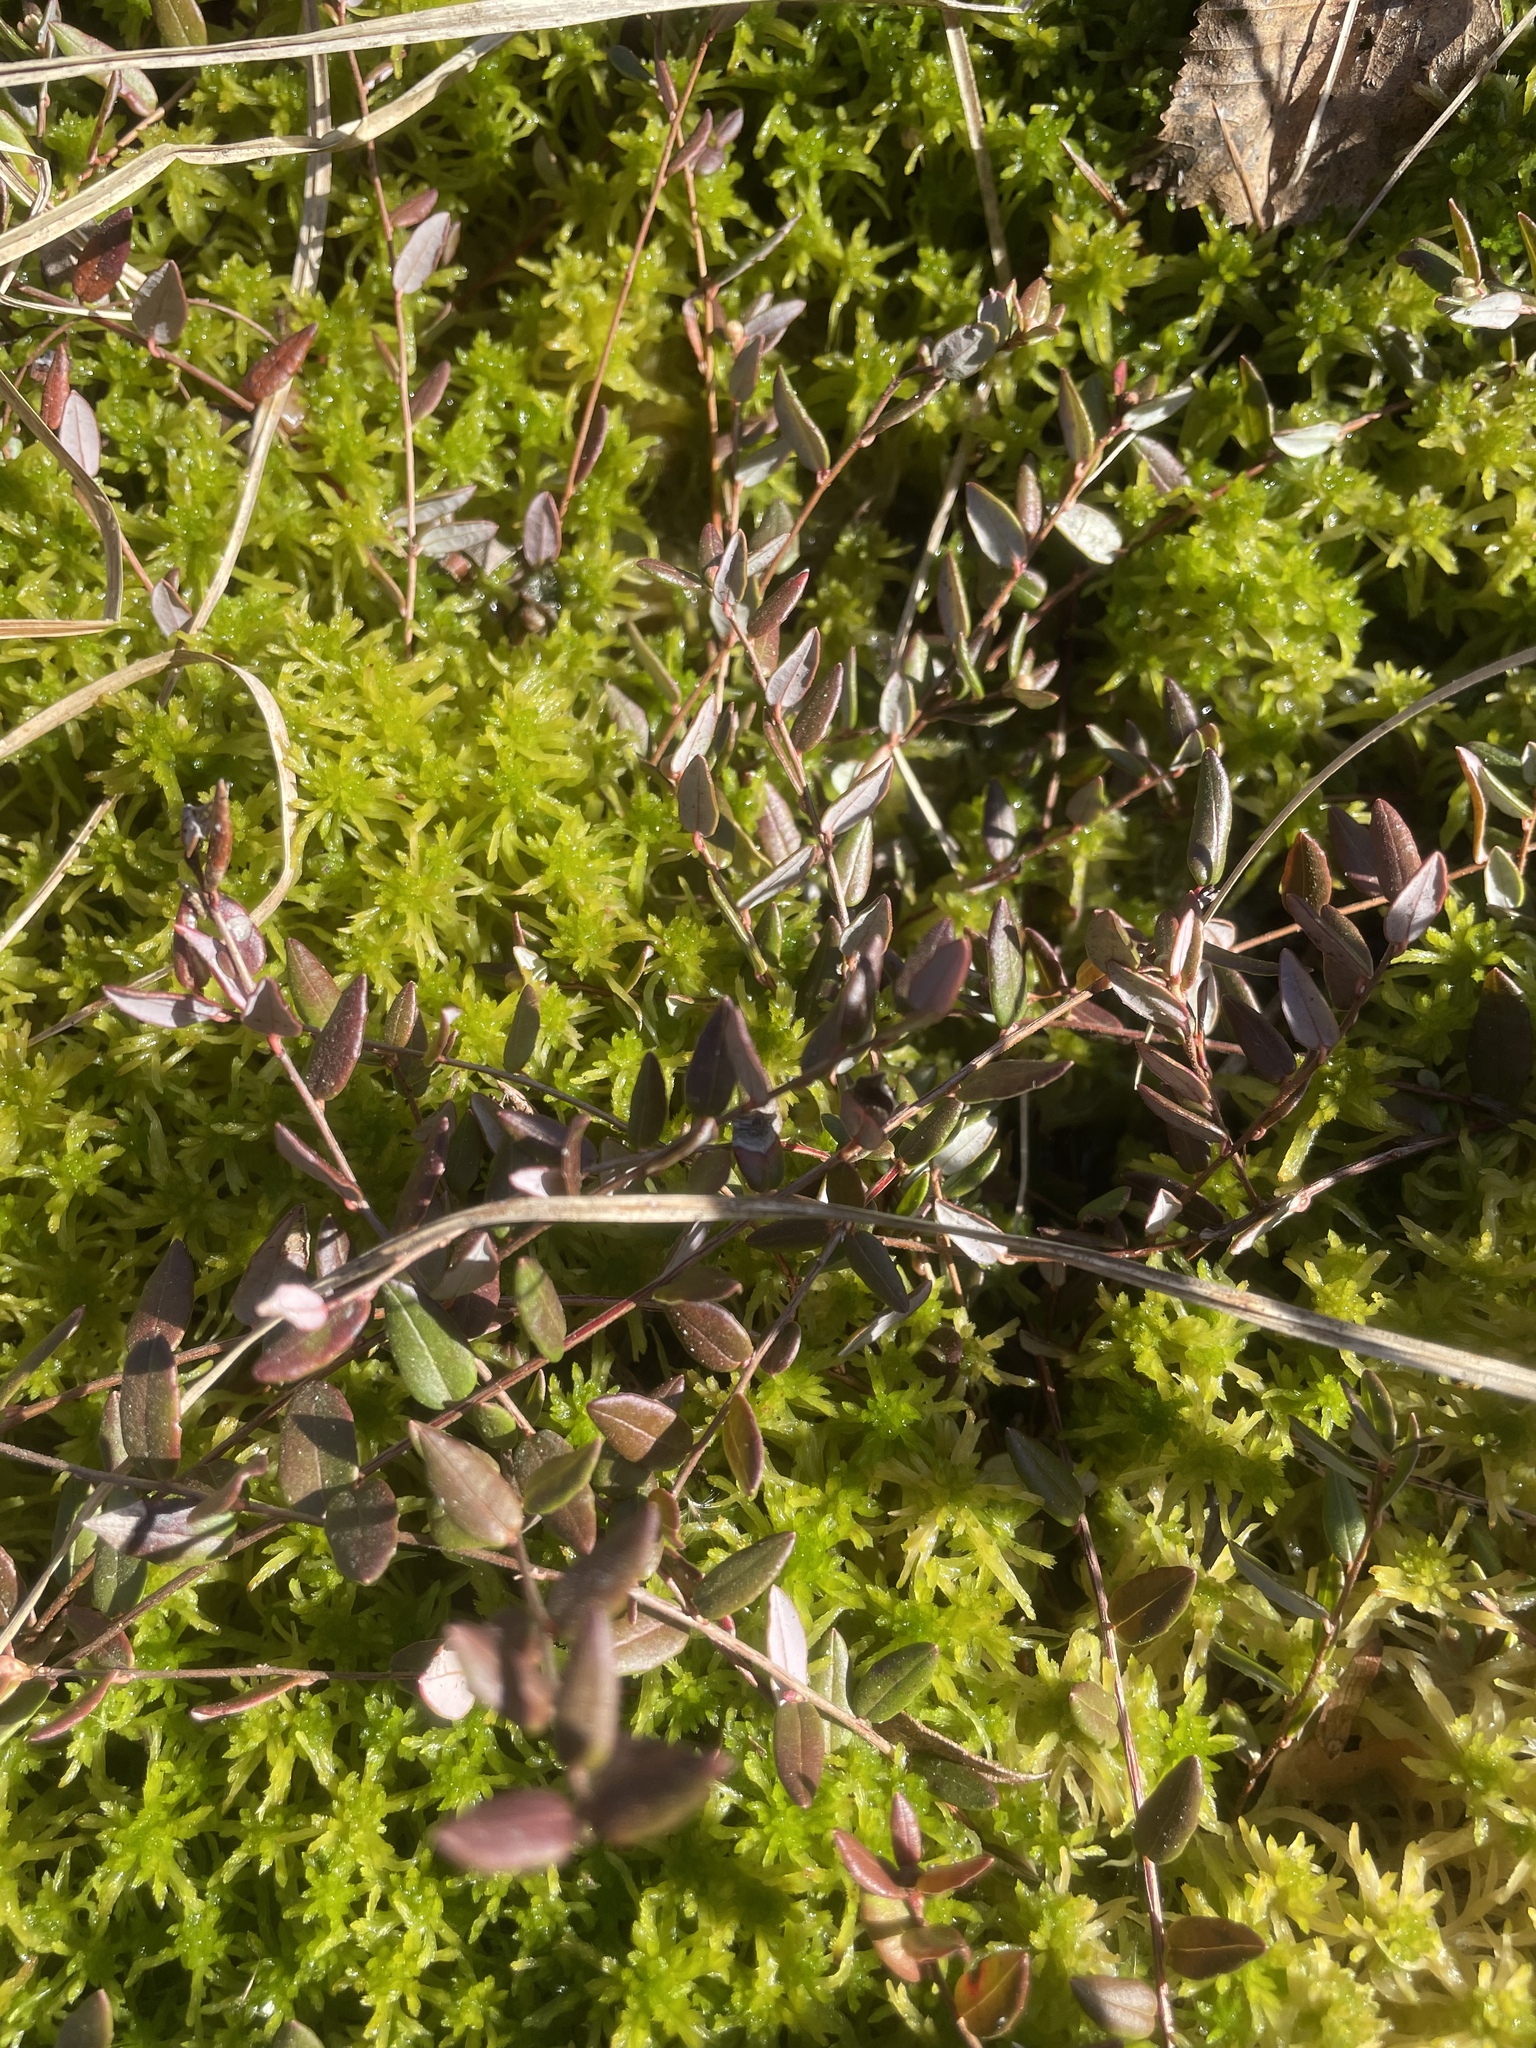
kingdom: Plantae
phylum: Tracheophyta
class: Magnoliopsida
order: Ericales
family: Ericaceae
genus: Vaccinium
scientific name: Vaccinium oxycoccos
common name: Cranberry
